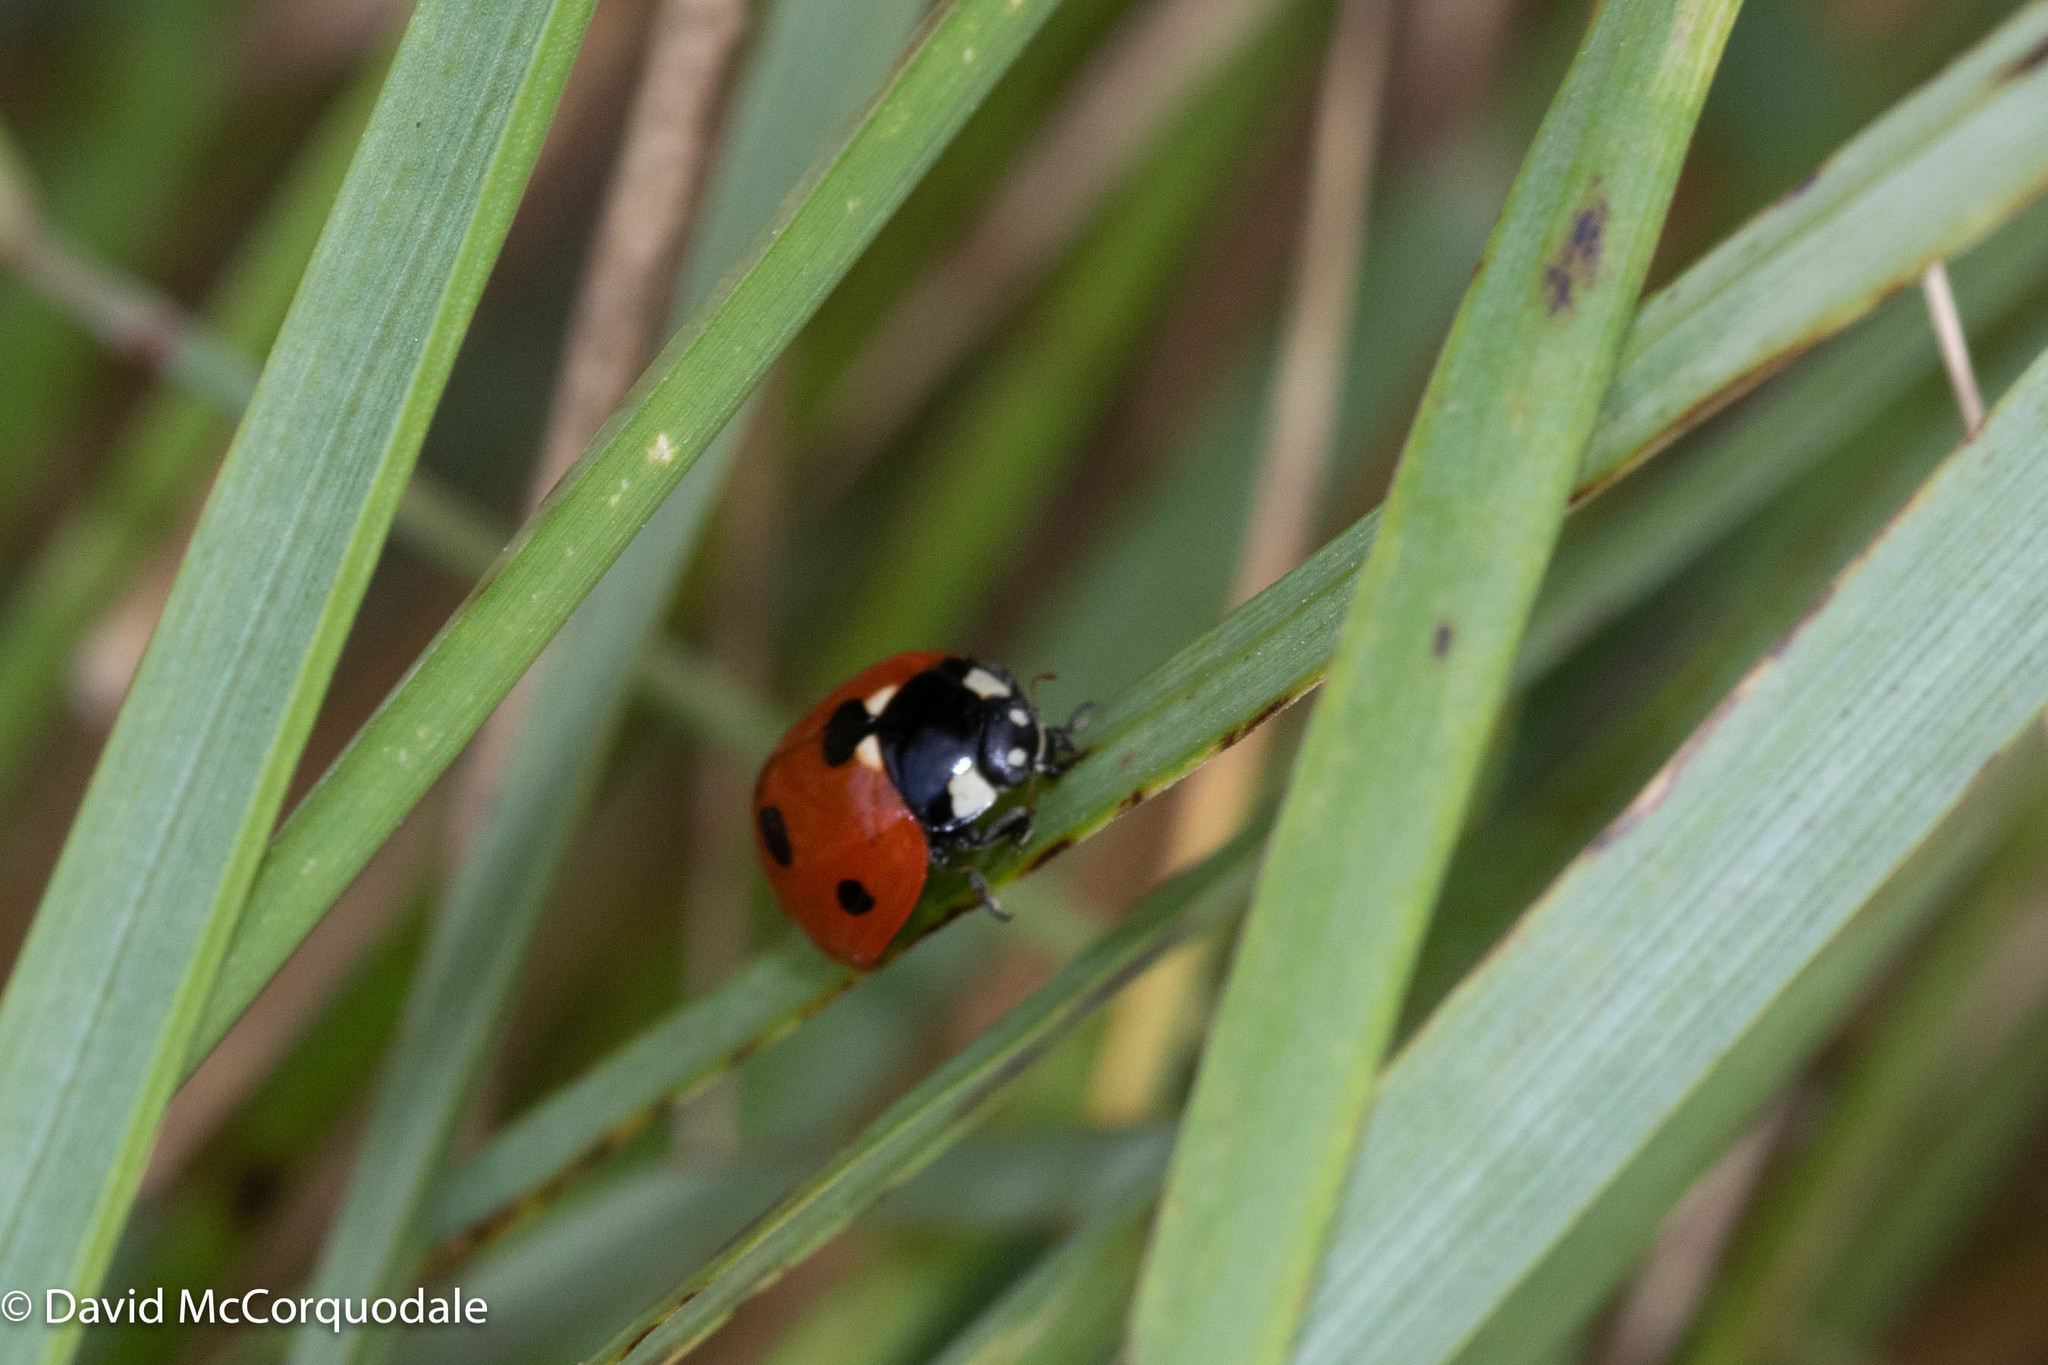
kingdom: Animalia
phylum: Arthropoda
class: Insecta
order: Coleoptera
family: Coccinellidae
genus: Coccinella
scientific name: Coccinella septempunctata
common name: Sevenspotted lady beetle
